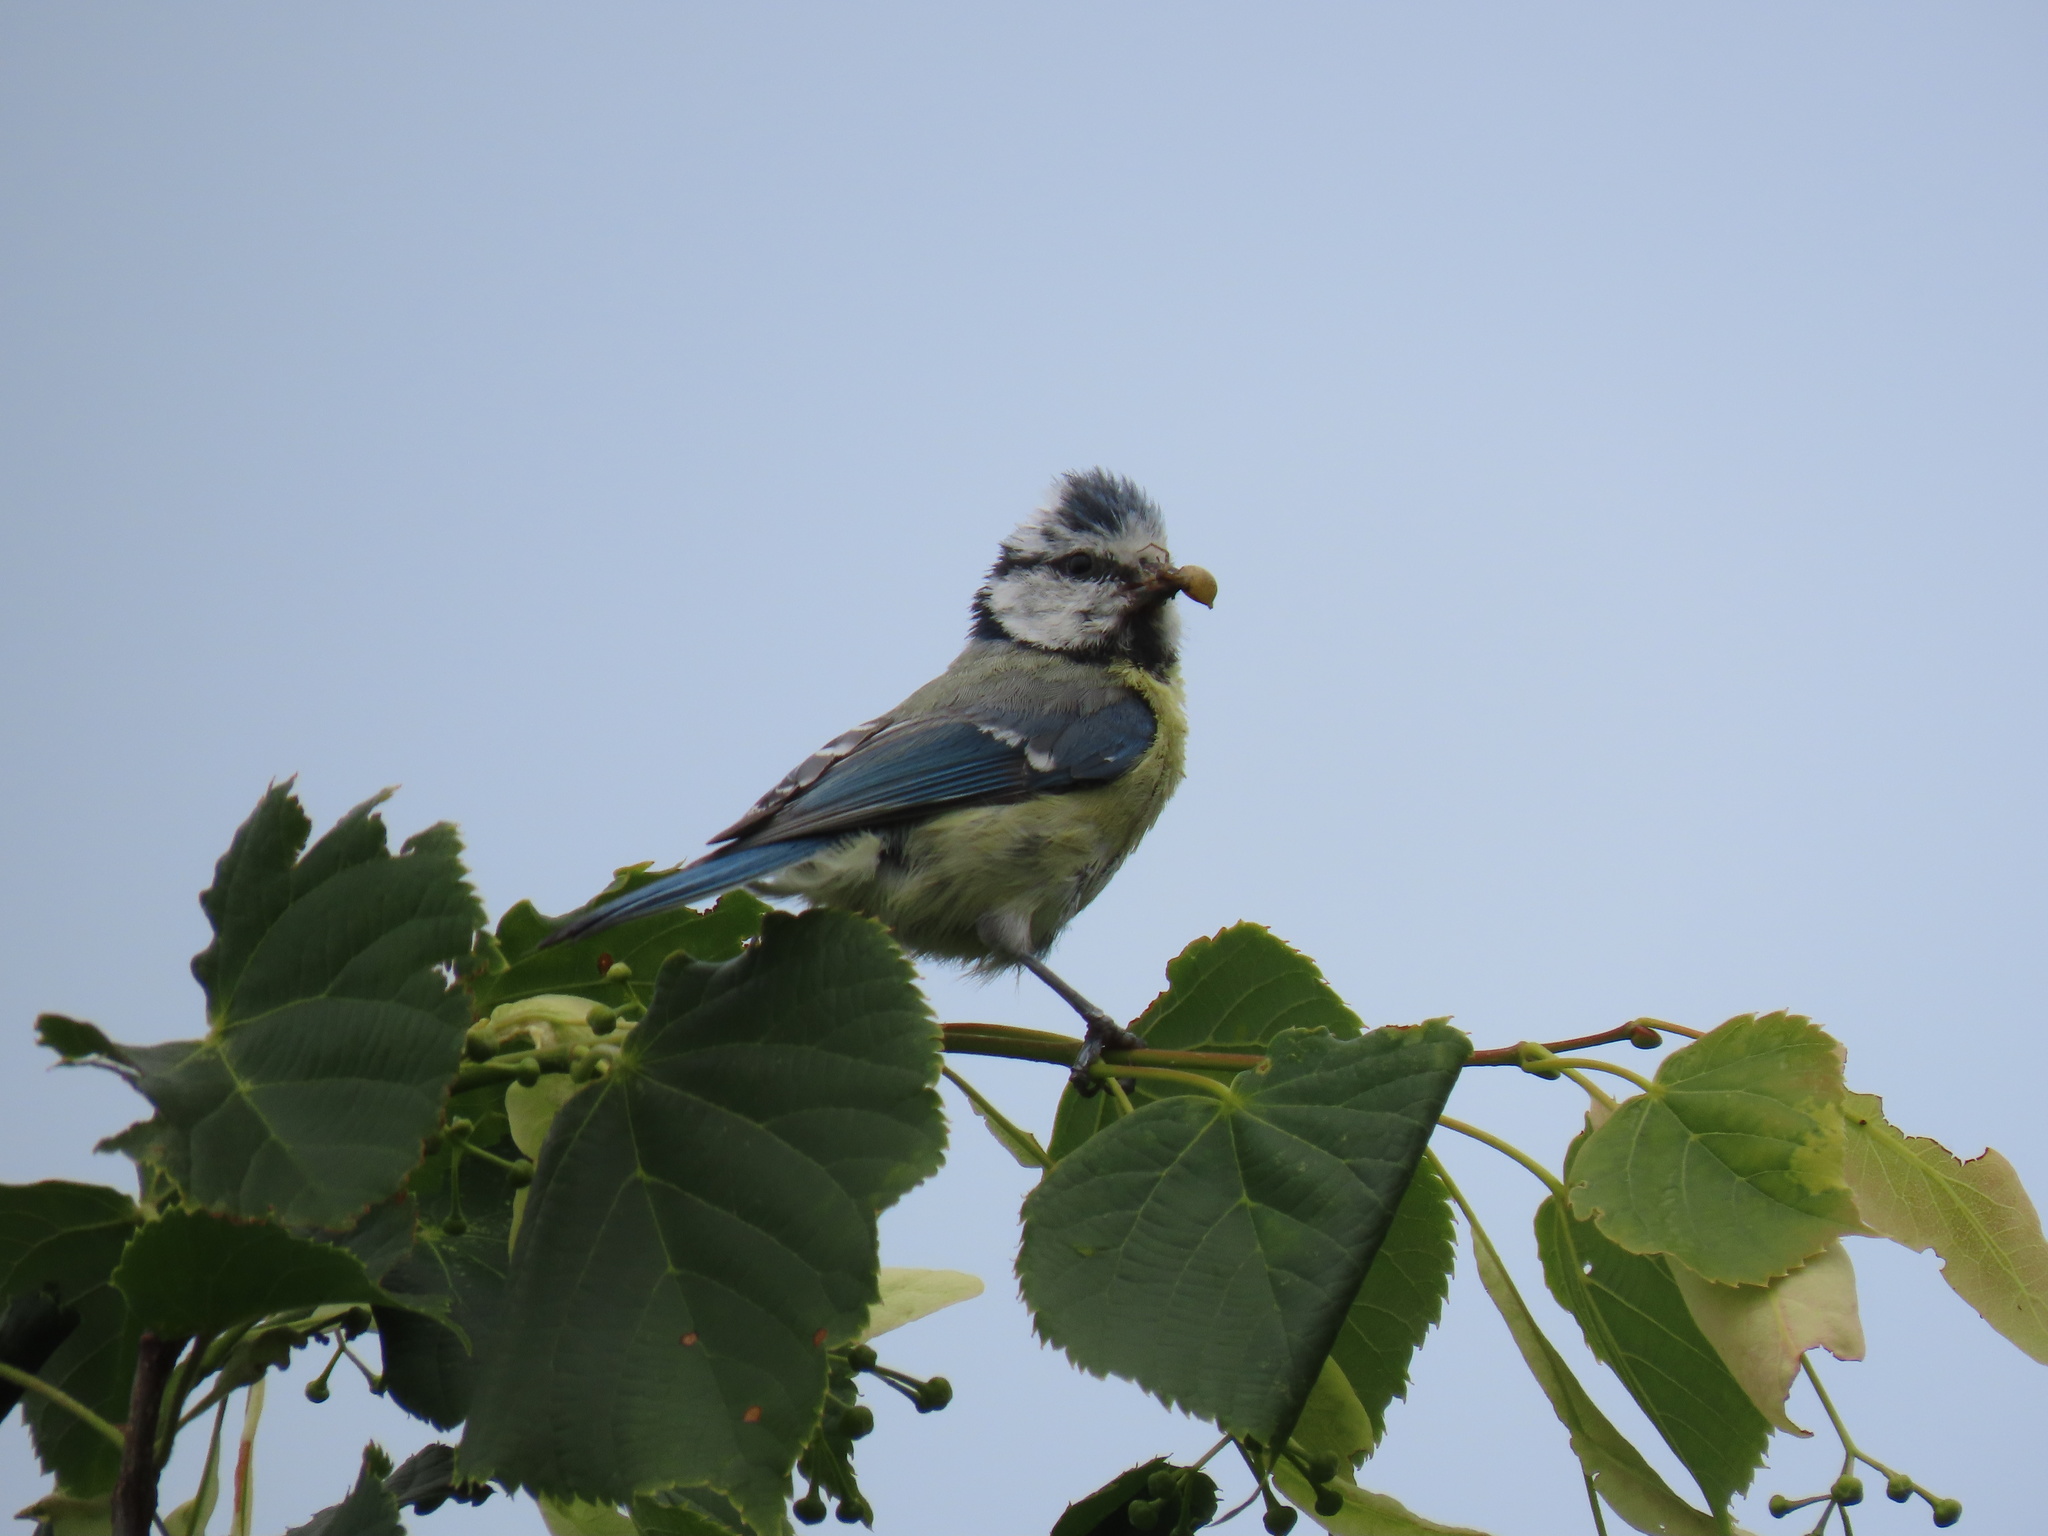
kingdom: Animalia
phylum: Chordata
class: Aves
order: Passeriformes
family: Paridae
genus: Cyanistes
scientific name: Cyanistes caeruleus
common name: Eurasian blue tit
